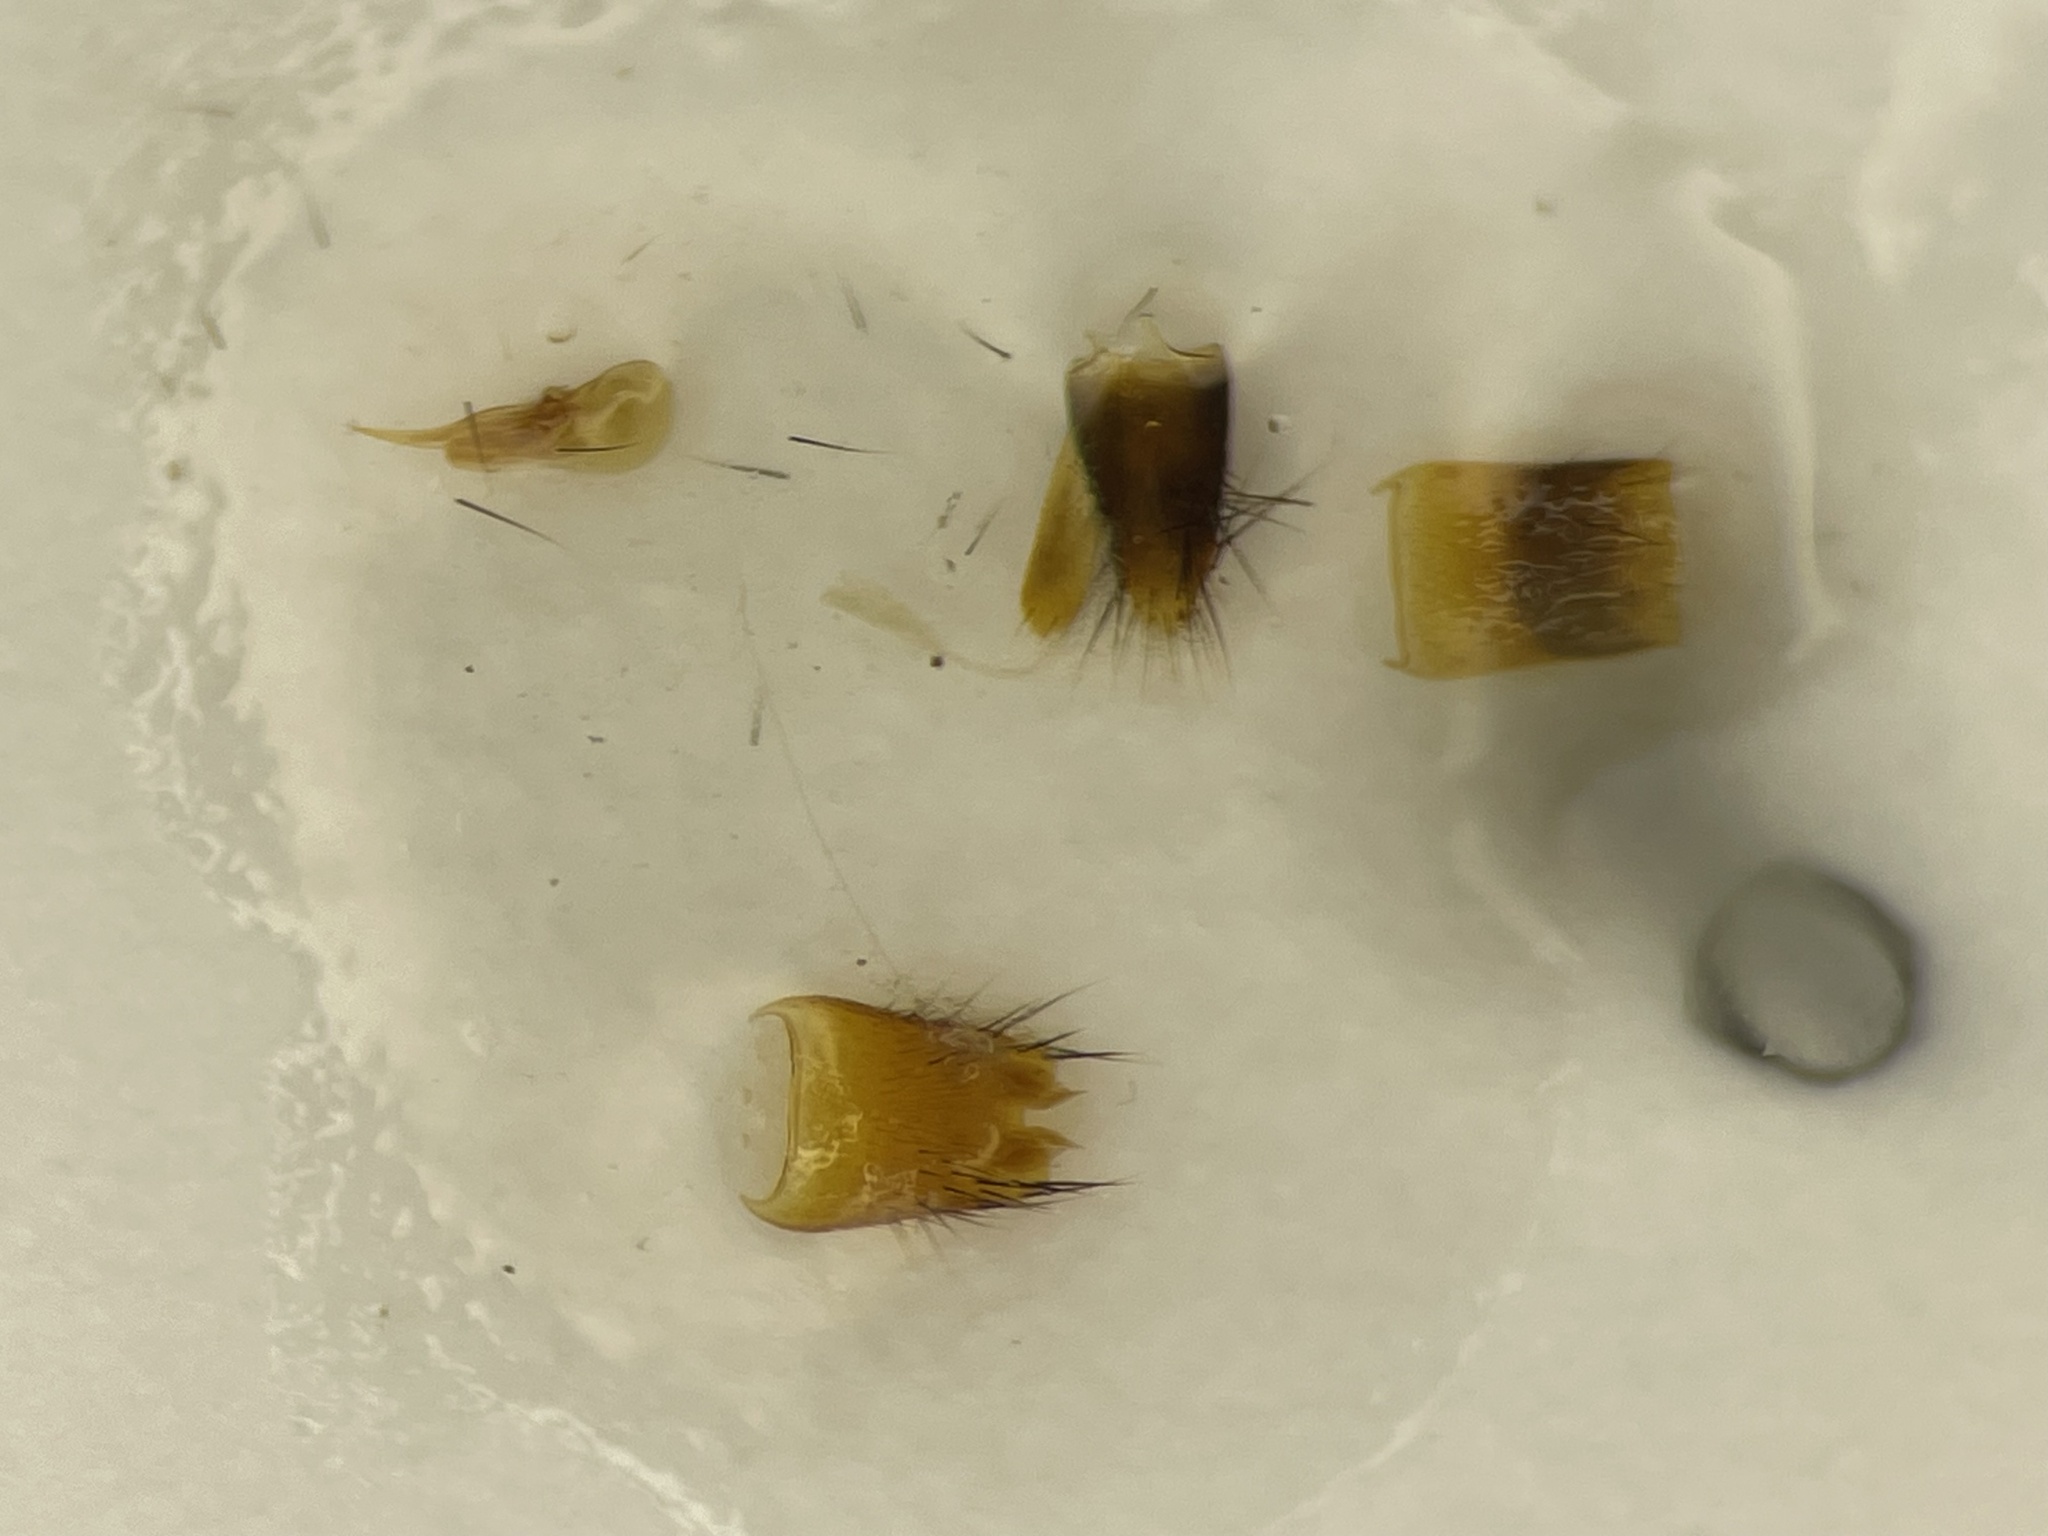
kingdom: Animalia
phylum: Arthropoda
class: Insecta
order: Coleoptera
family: Staphylinidae
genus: Ischnosoma
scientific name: Ischnosoma virginicum
